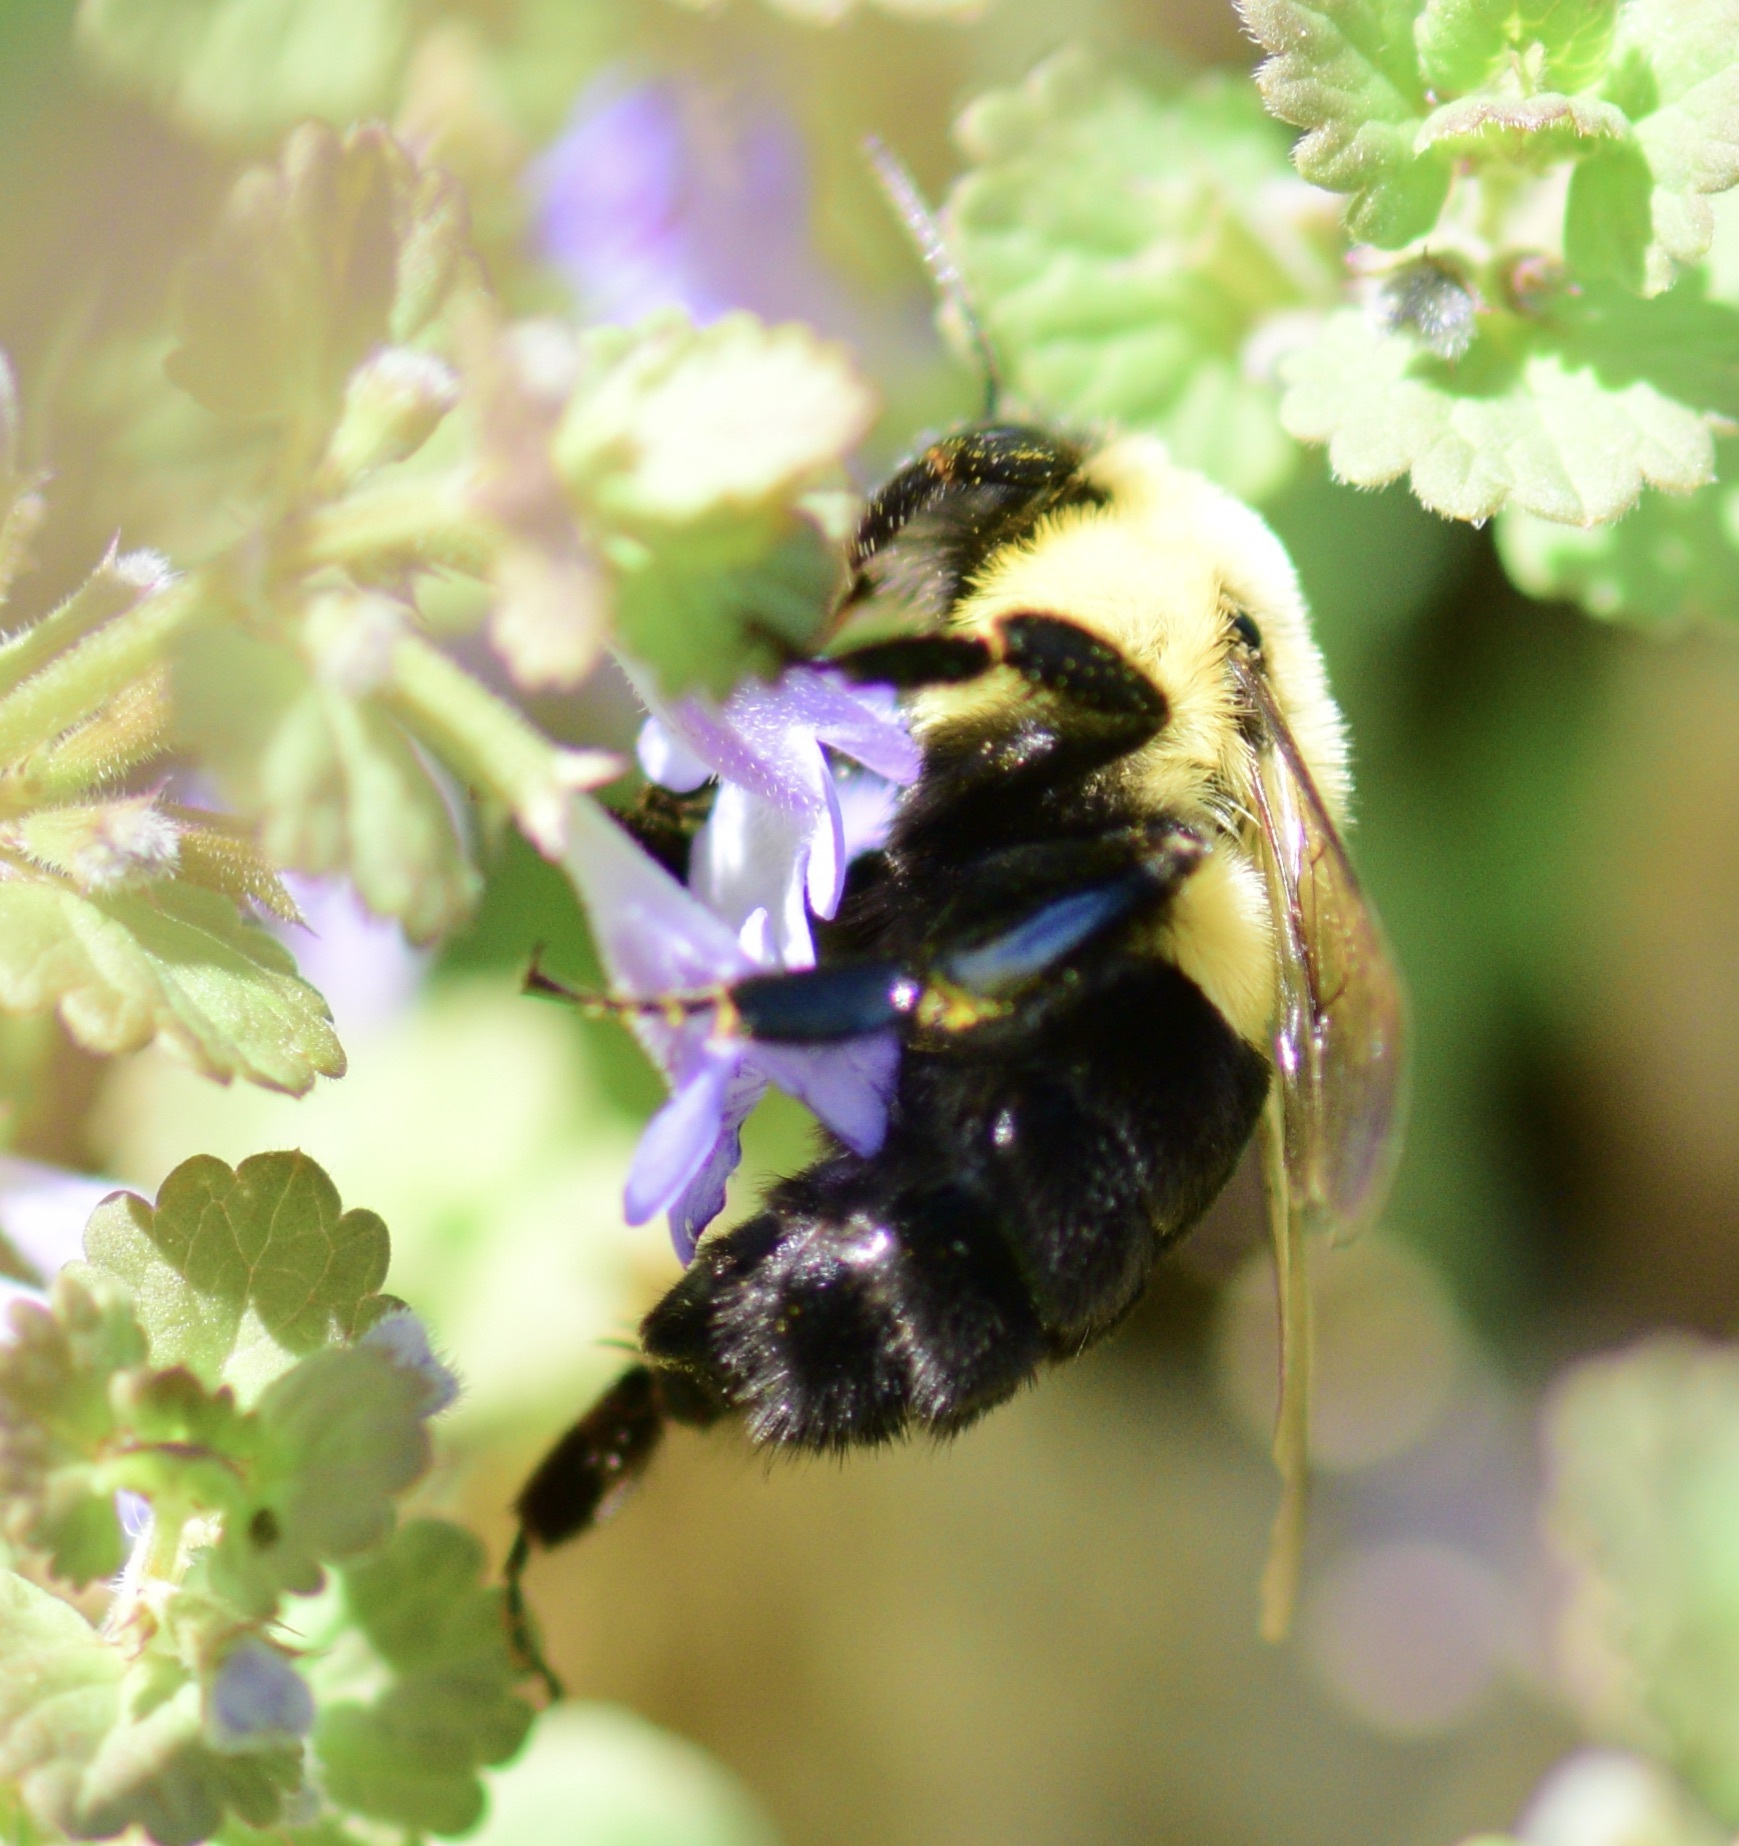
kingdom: Animalia
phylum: Arthropoda
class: Insecta
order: Hymenoptera
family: Apidae
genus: Bombus
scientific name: Bombus impatiens
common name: Common eastern bumble bee
